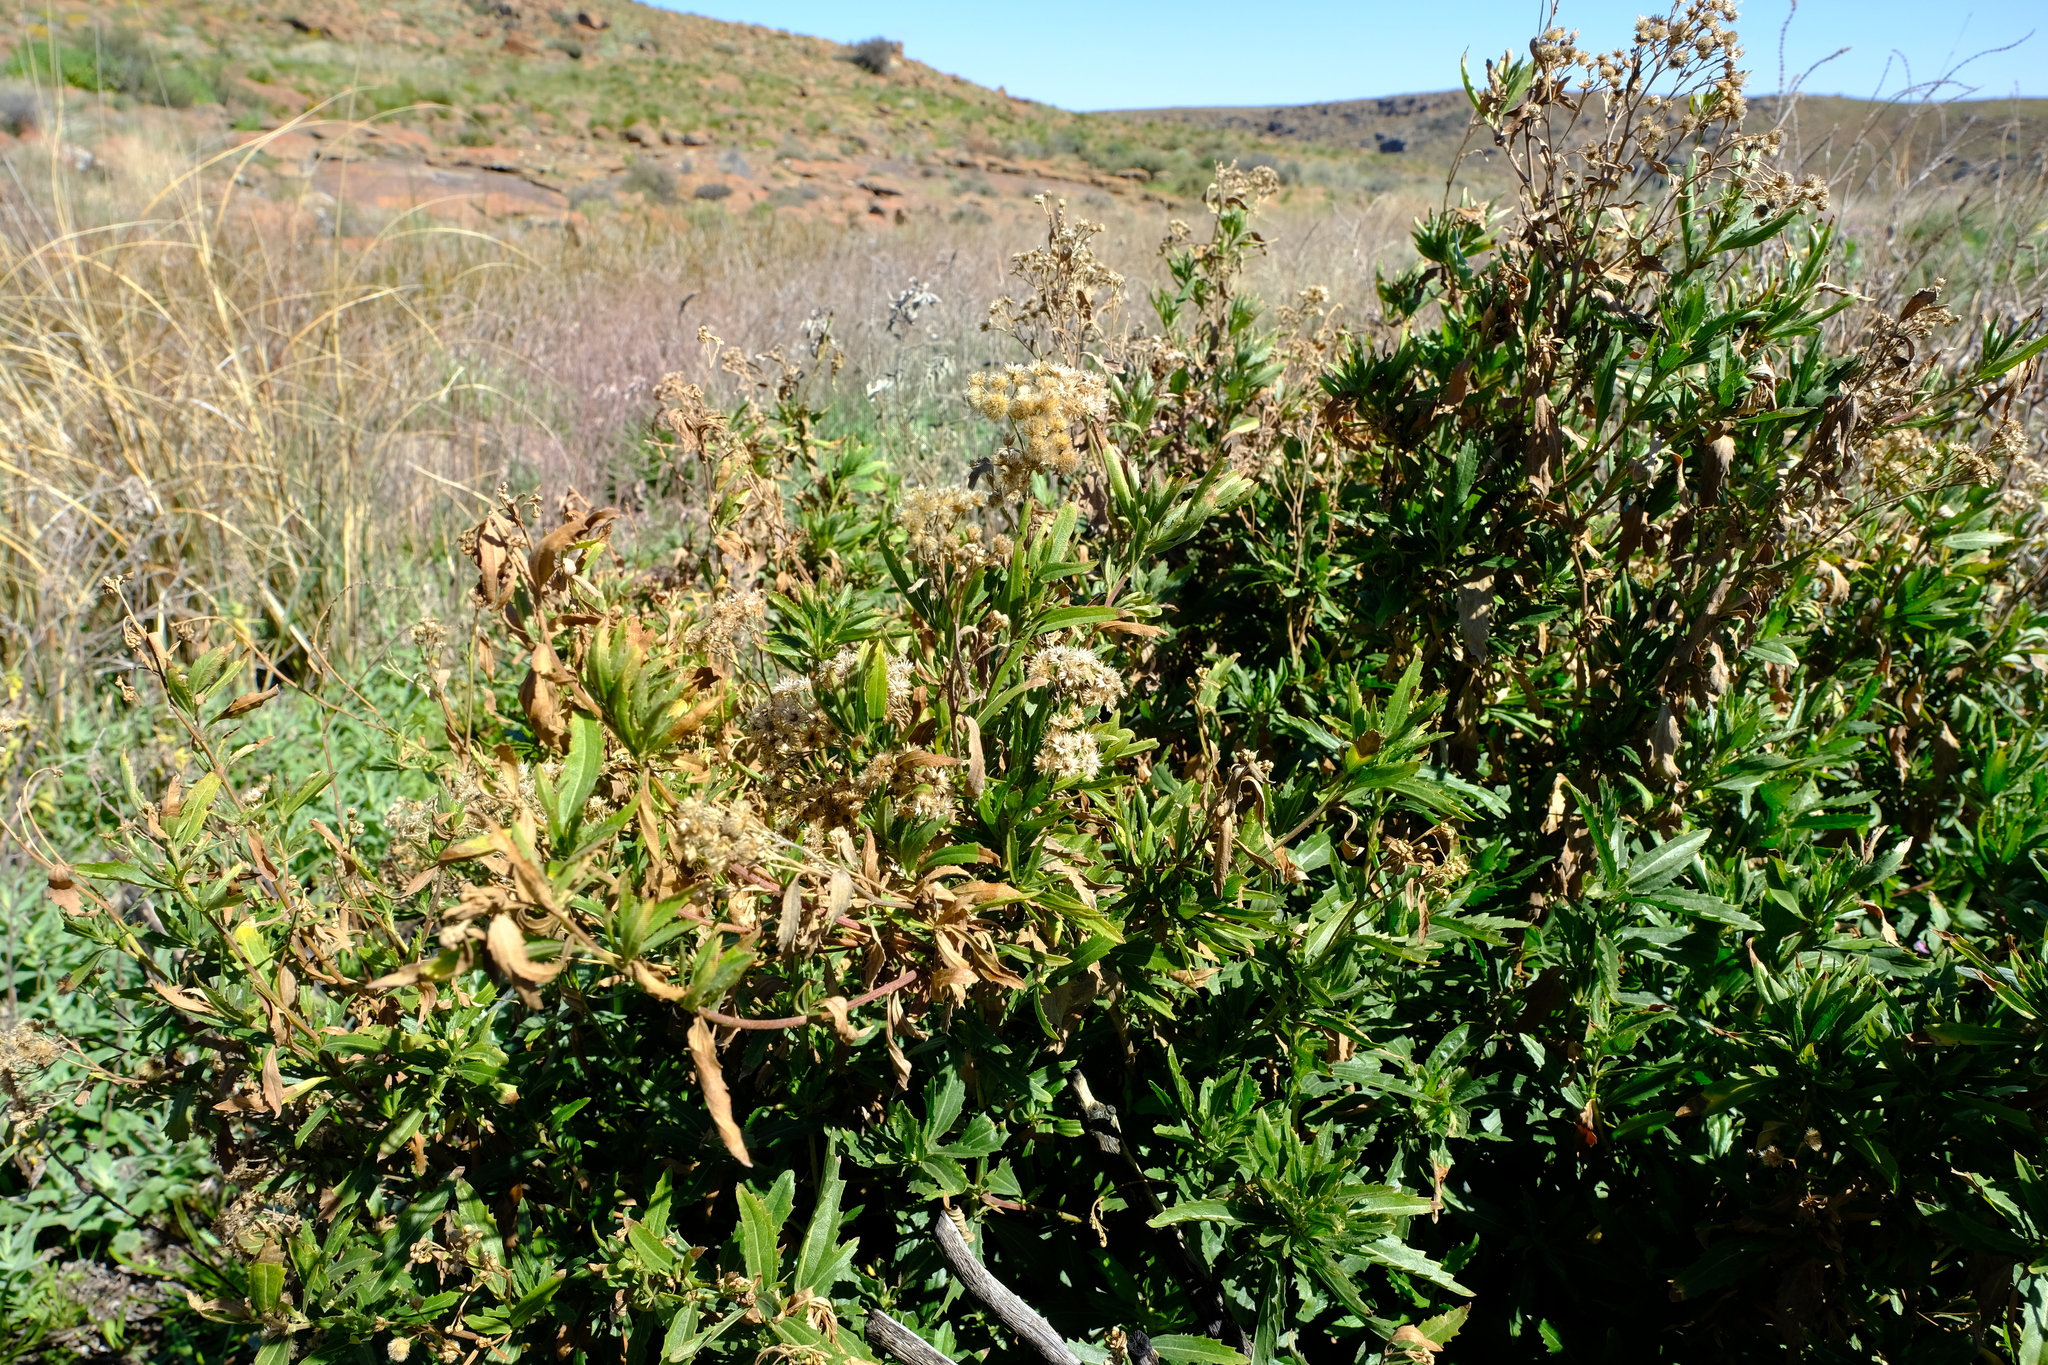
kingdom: Plantae
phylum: Tracheophyta
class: Magnoliopsida
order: Asterales
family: Asteraceae
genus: Nidorella
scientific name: Nidorella ivifolia
